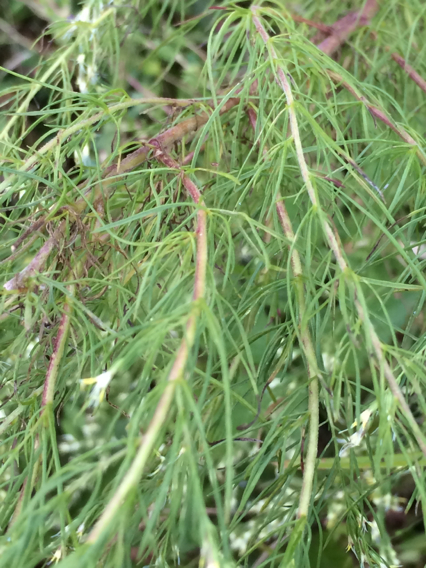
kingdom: Plantae
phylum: Tracheophyta
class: Magnoliopsida
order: Asterales
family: Asteraceae
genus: Eupatorium
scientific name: Eupatorium capillifolium
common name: Dog-fennel
